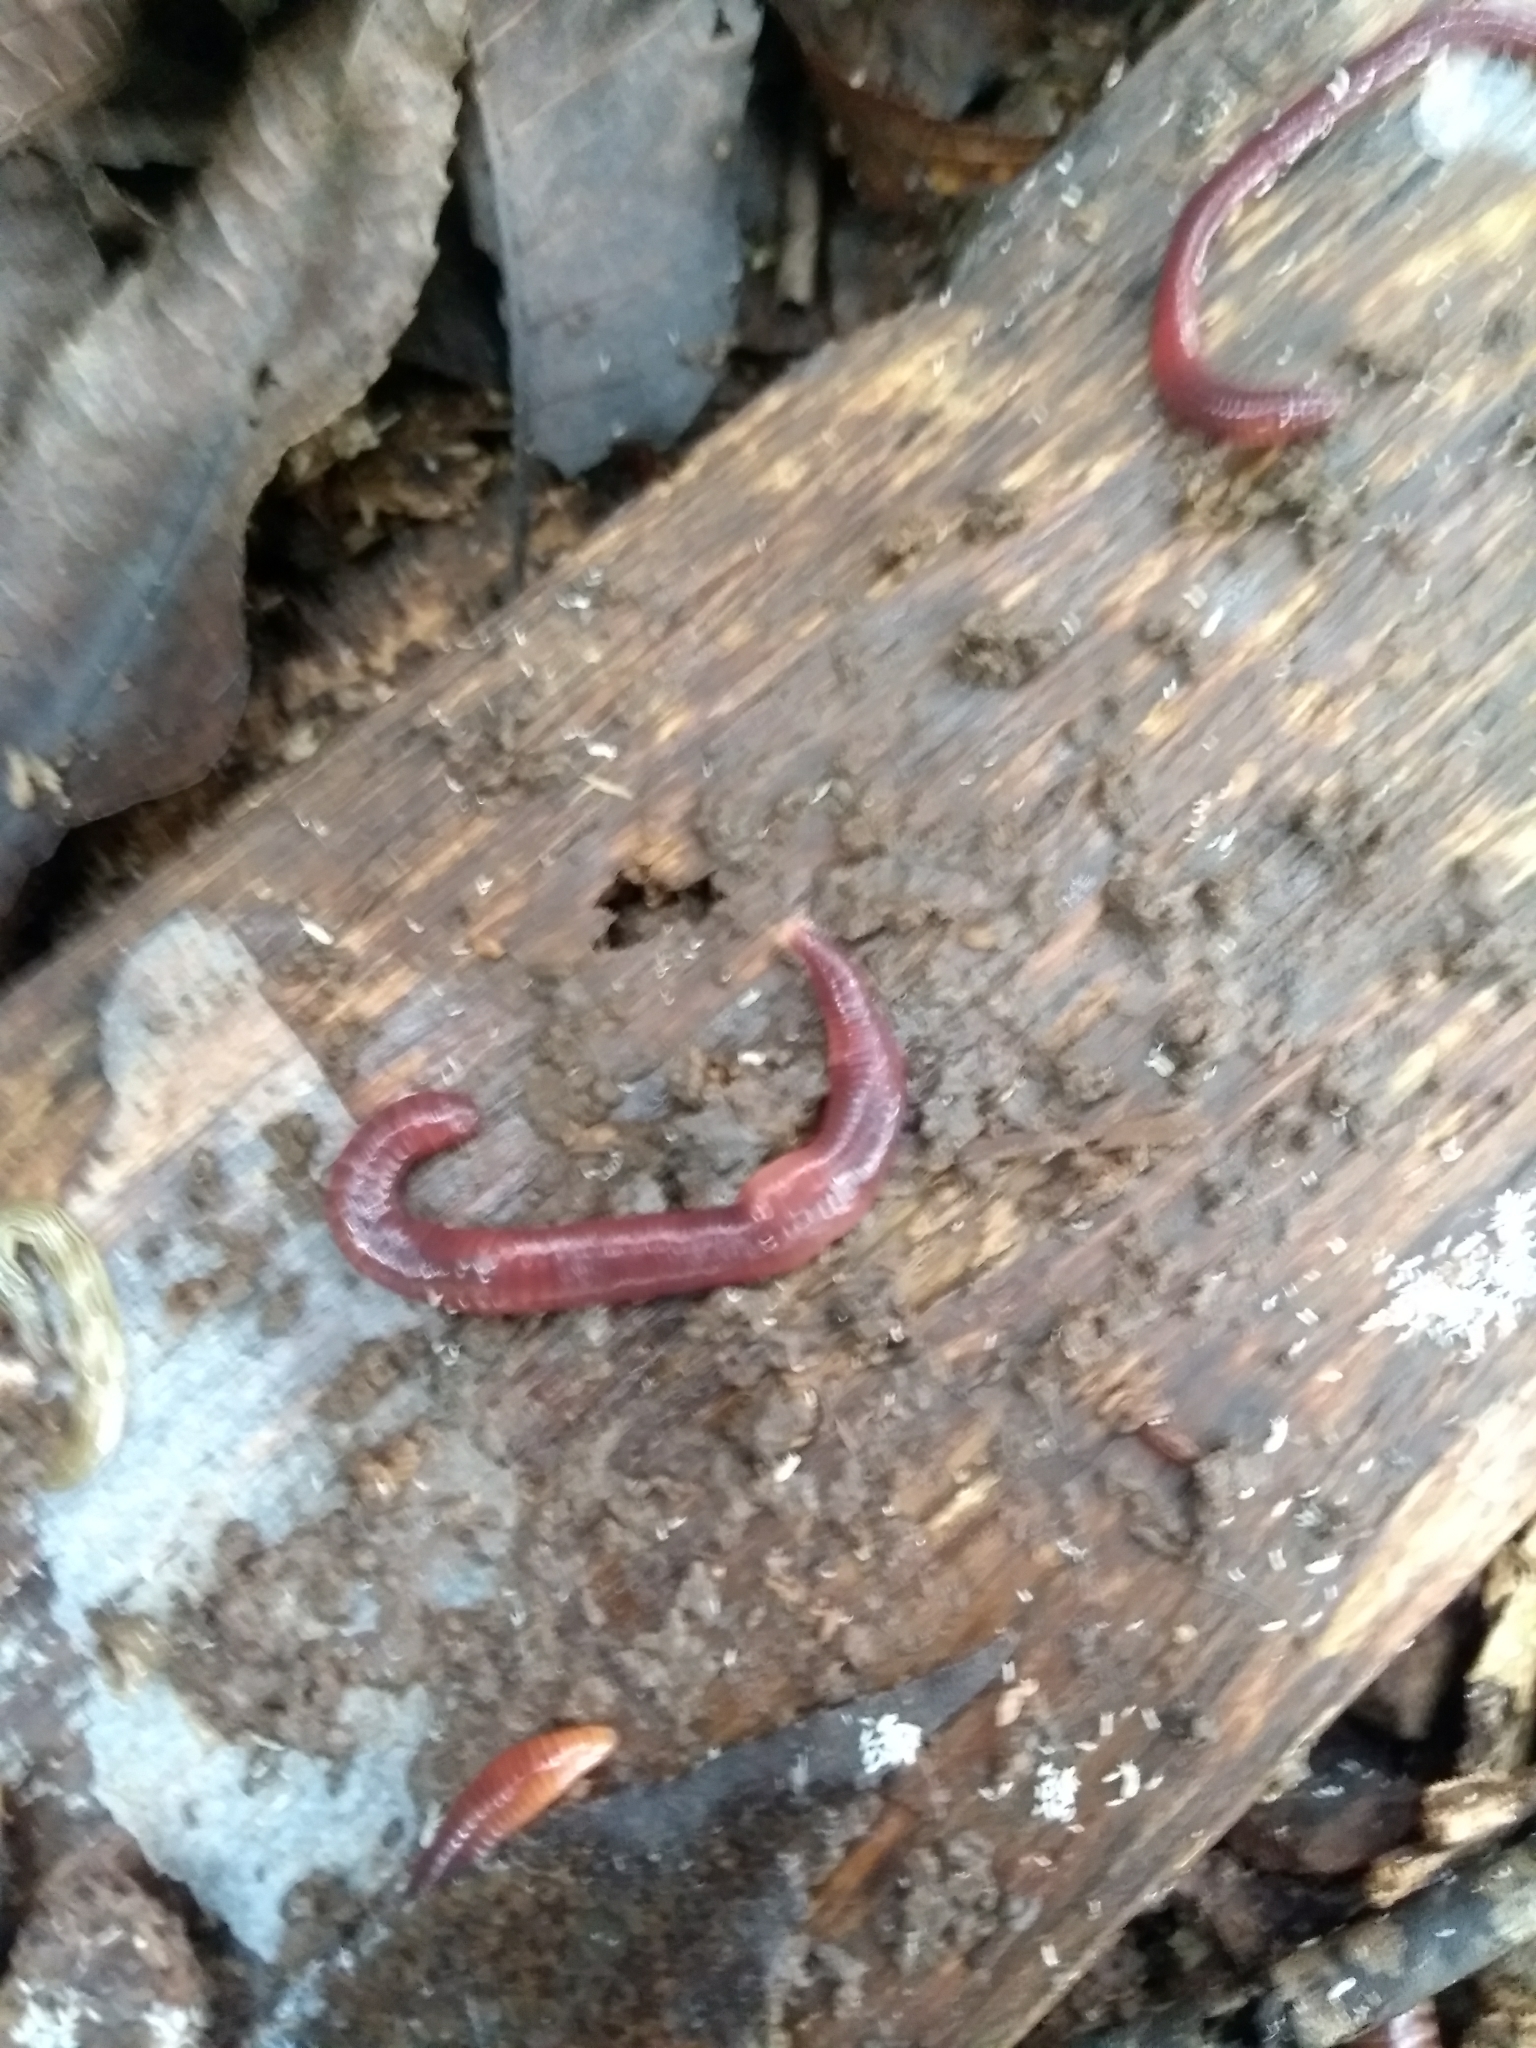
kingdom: Animalia
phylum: Annelida
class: Clitellata
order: Crassiclitellata
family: Lumbricidae
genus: Eisenia
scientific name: Eisenia andrei
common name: Manure worm
